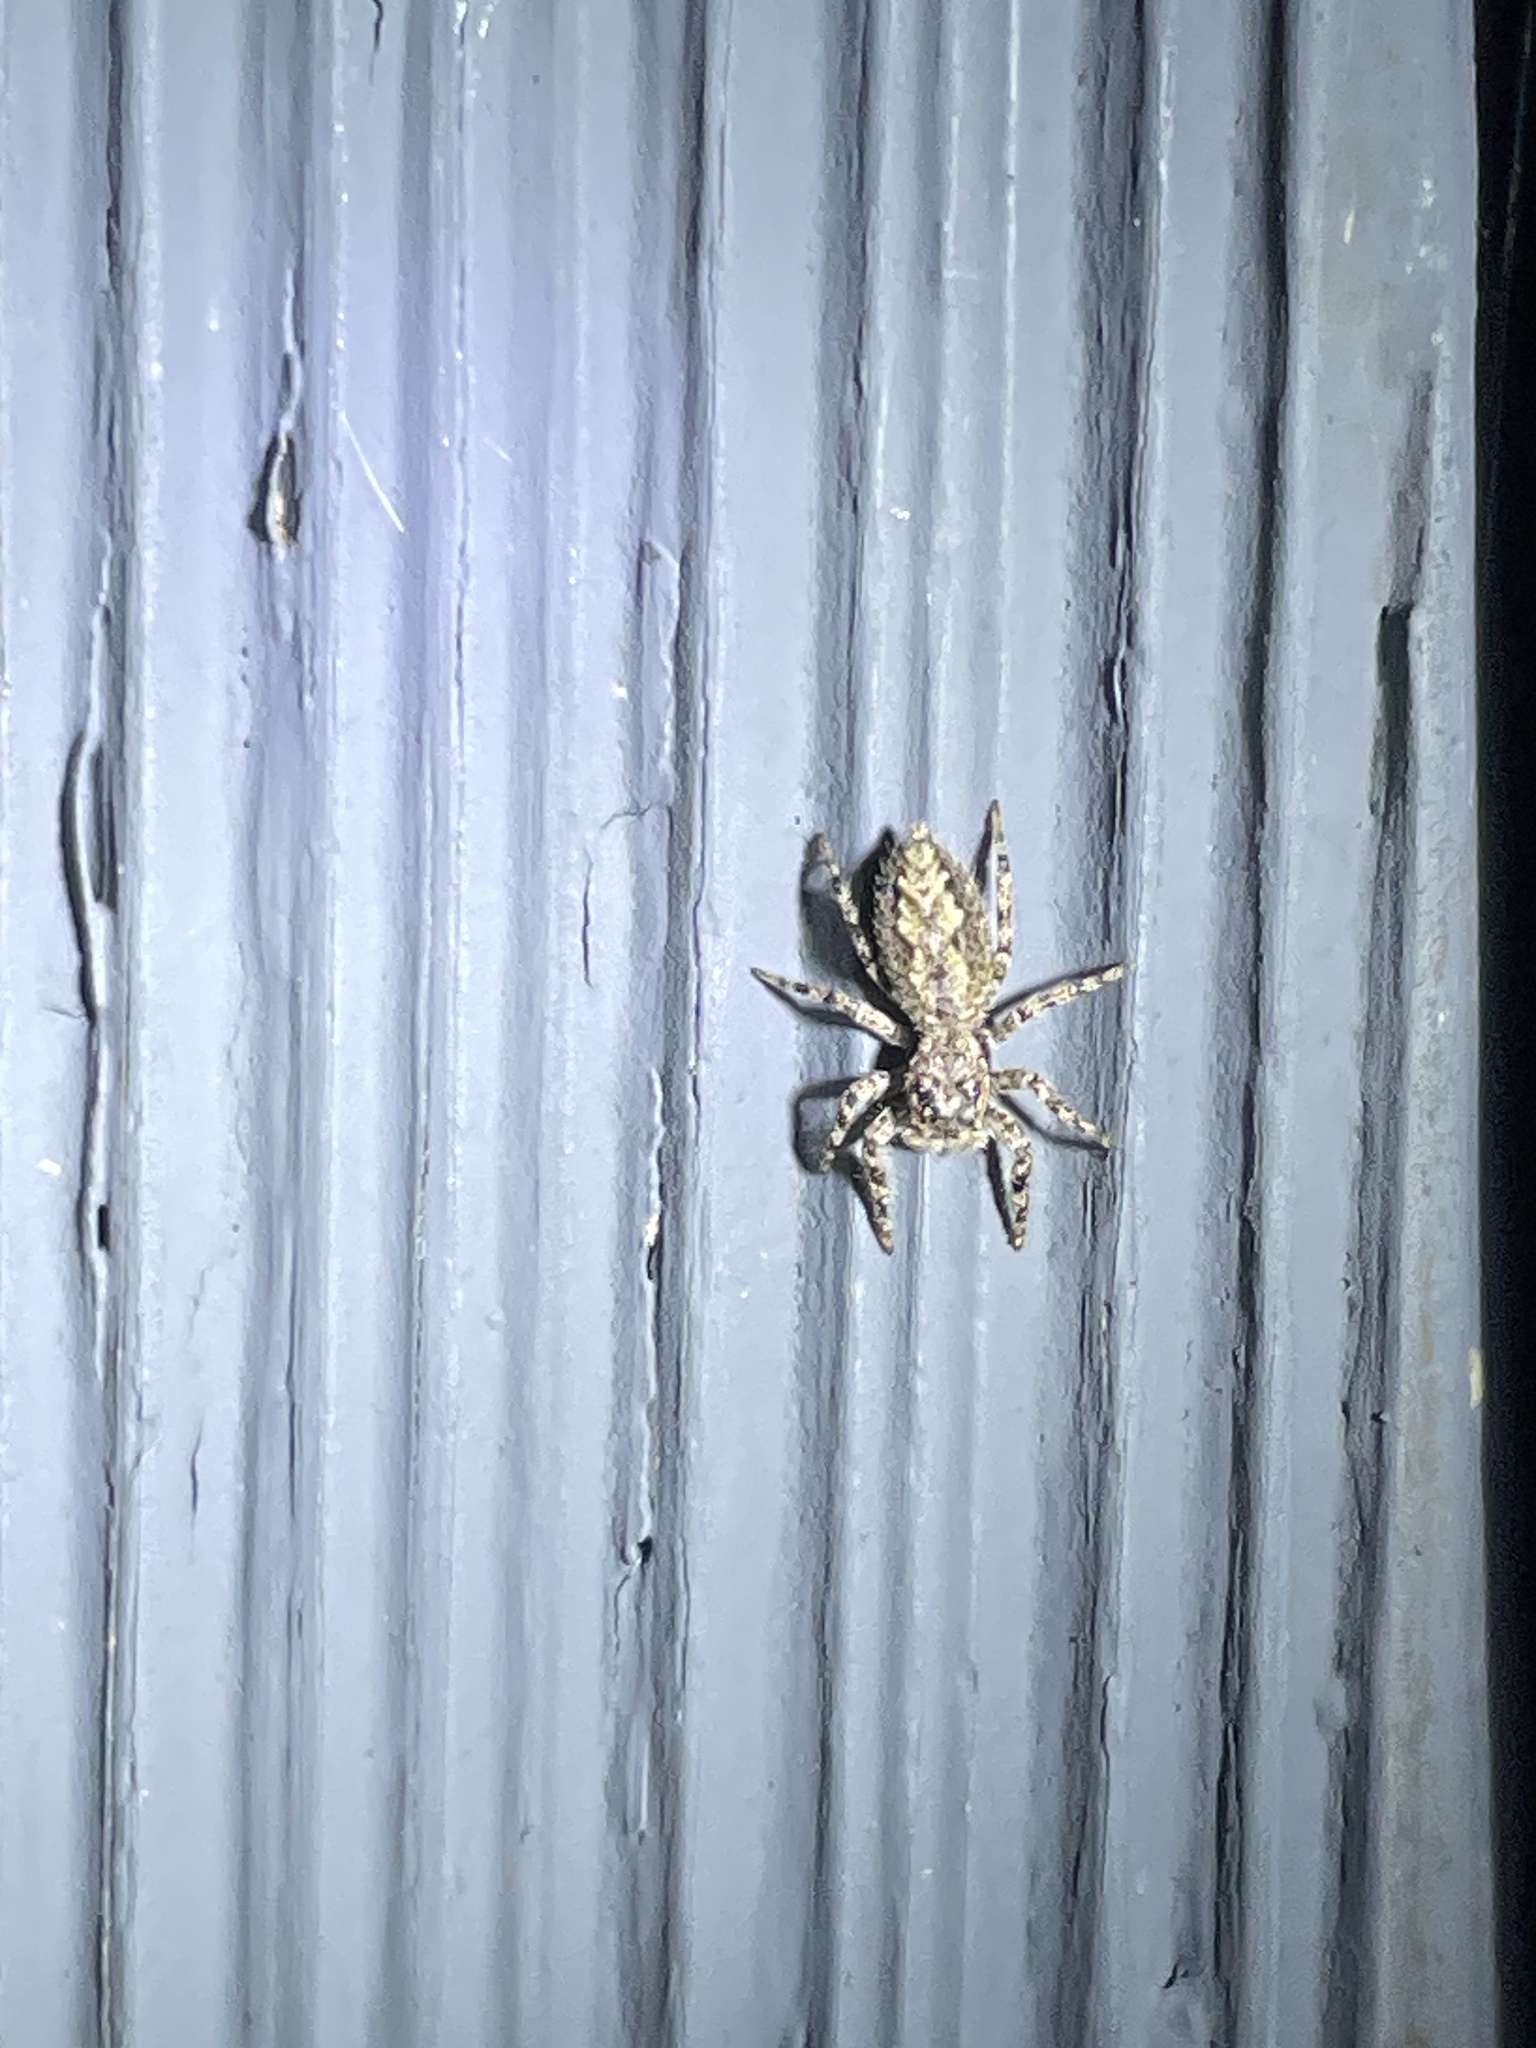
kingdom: Animalia
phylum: Arthropoda
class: Arachnida
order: Araneae
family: Salticidae
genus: Platycryptus
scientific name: Platycryptus undatus
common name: Tan jumping spider
